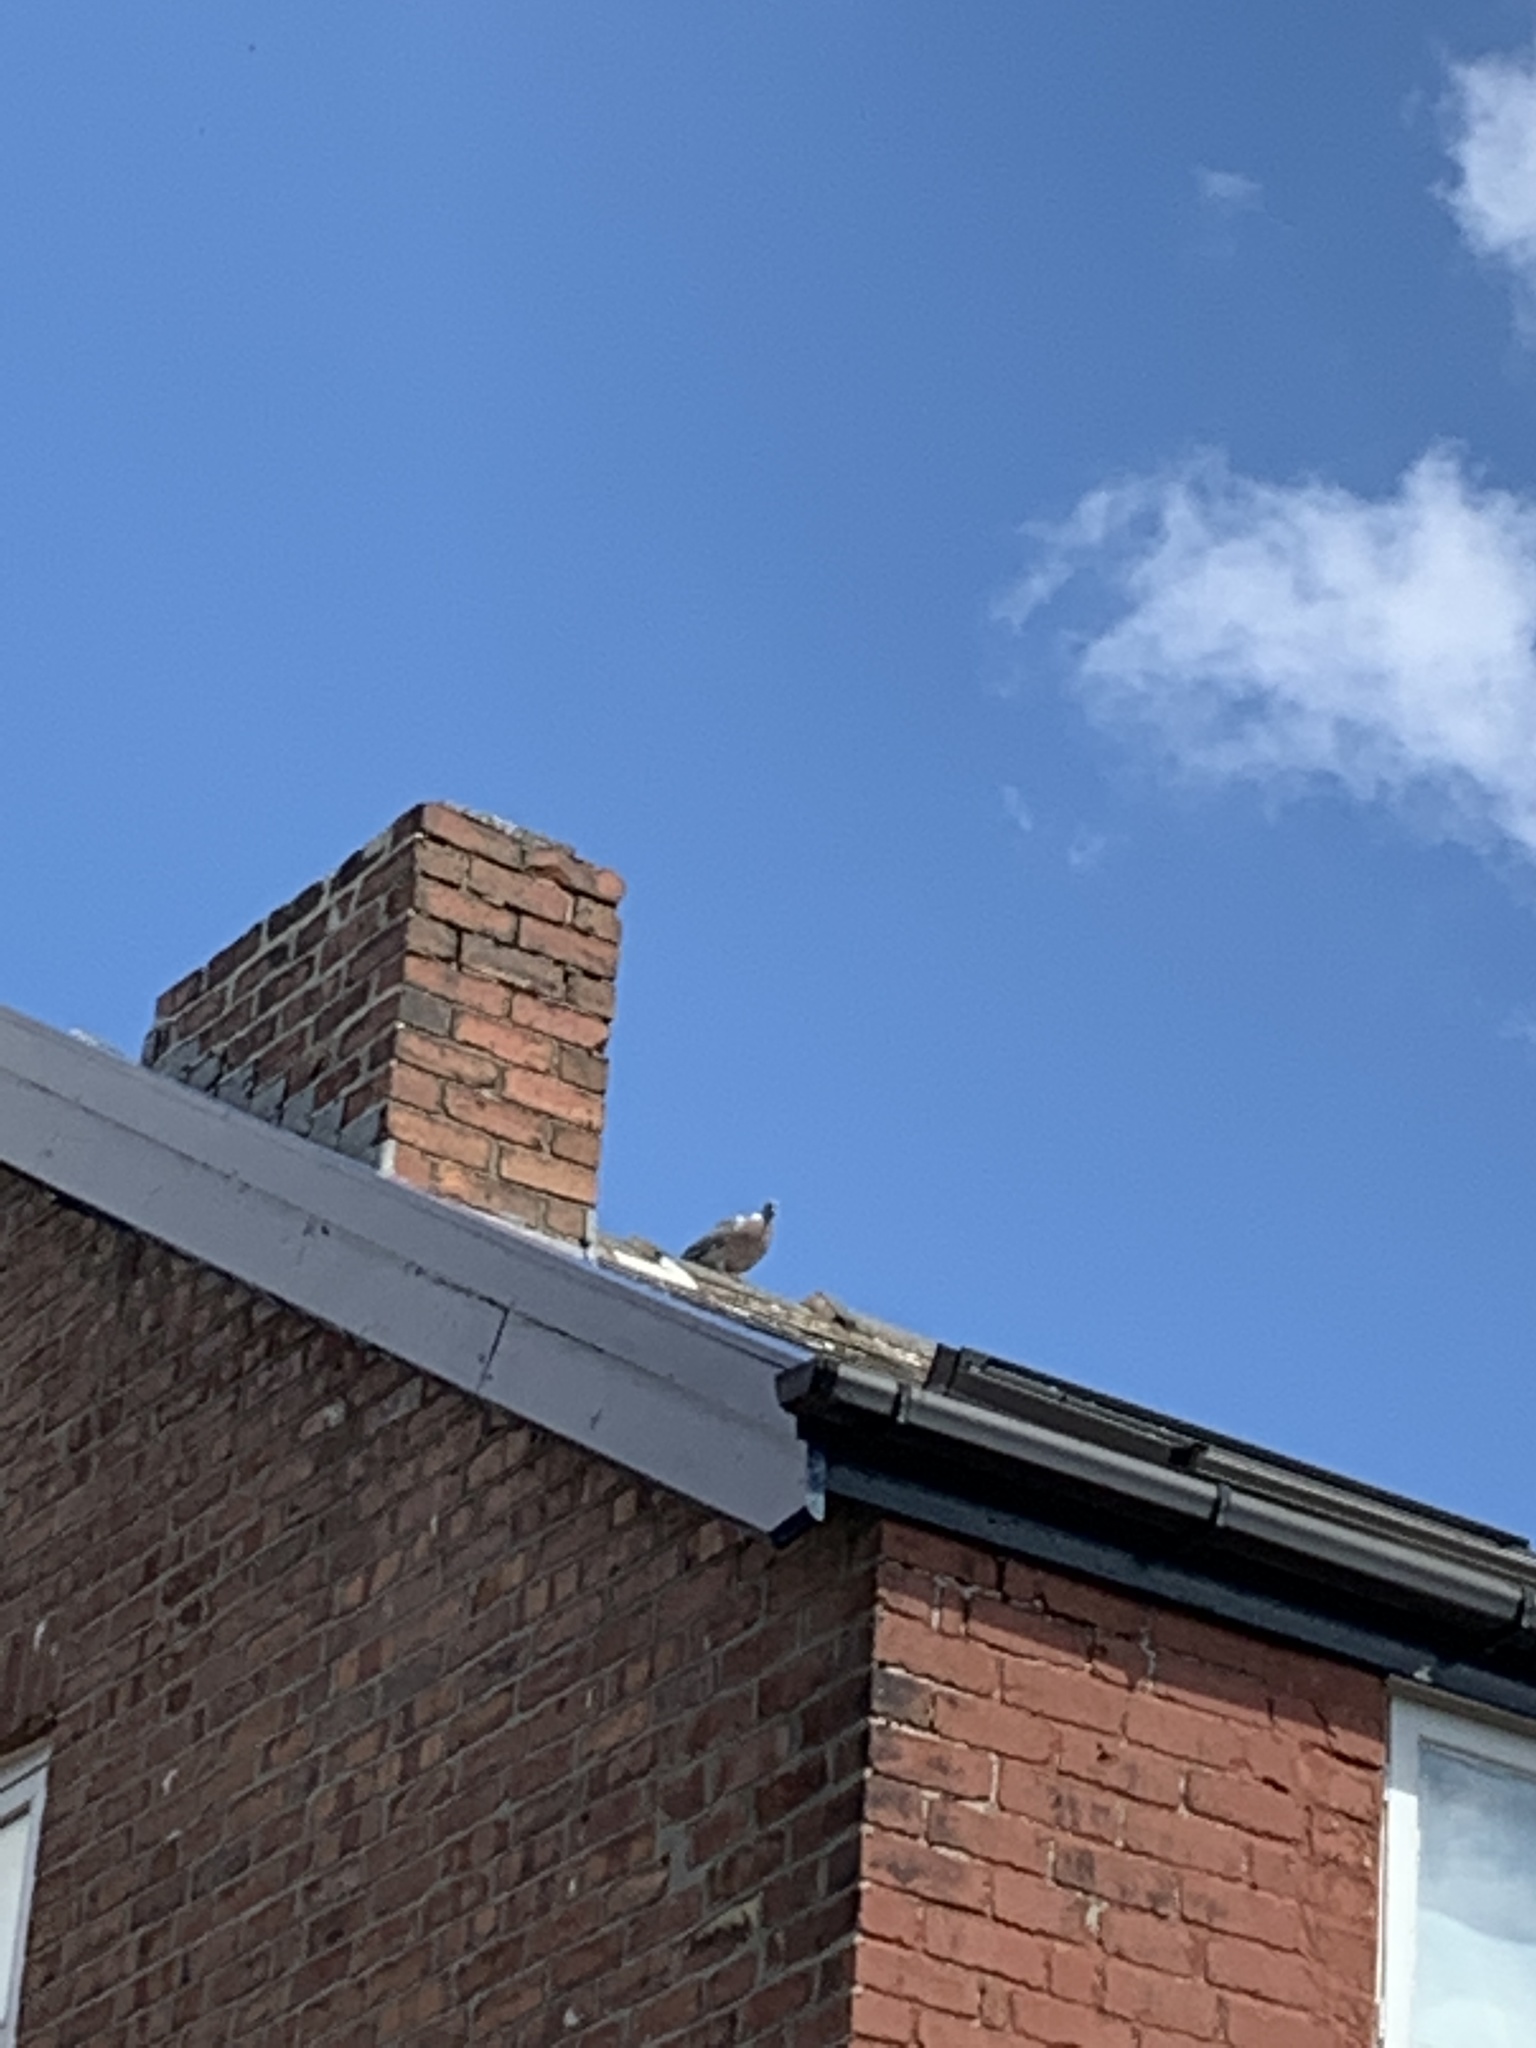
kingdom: Animalia
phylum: Chordata
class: Aves
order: Columbiformes
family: Columbidae
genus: Columba
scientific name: Columba palumbus
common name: Common wood pigeon
